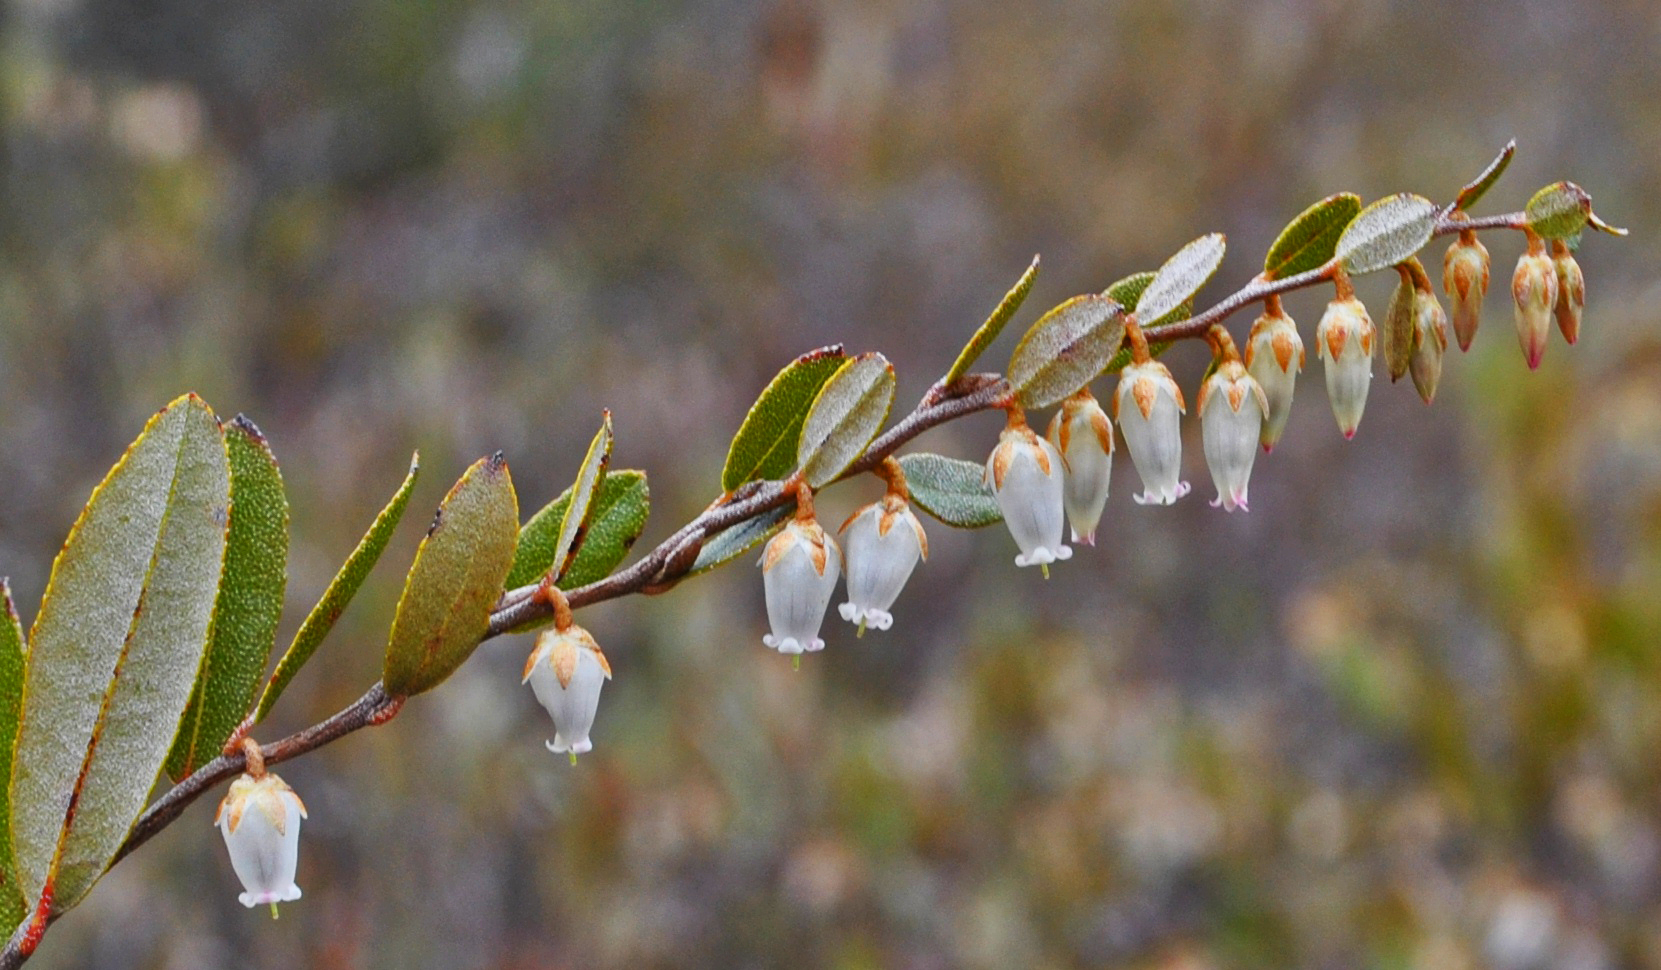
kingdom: Plantae
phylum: Tracheophyta
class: Magnoliopsida
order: Ericales
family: Ericaceae
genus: Chamaedaphne
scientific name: Chamaedaphne calyculata
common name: Leatherleaf
